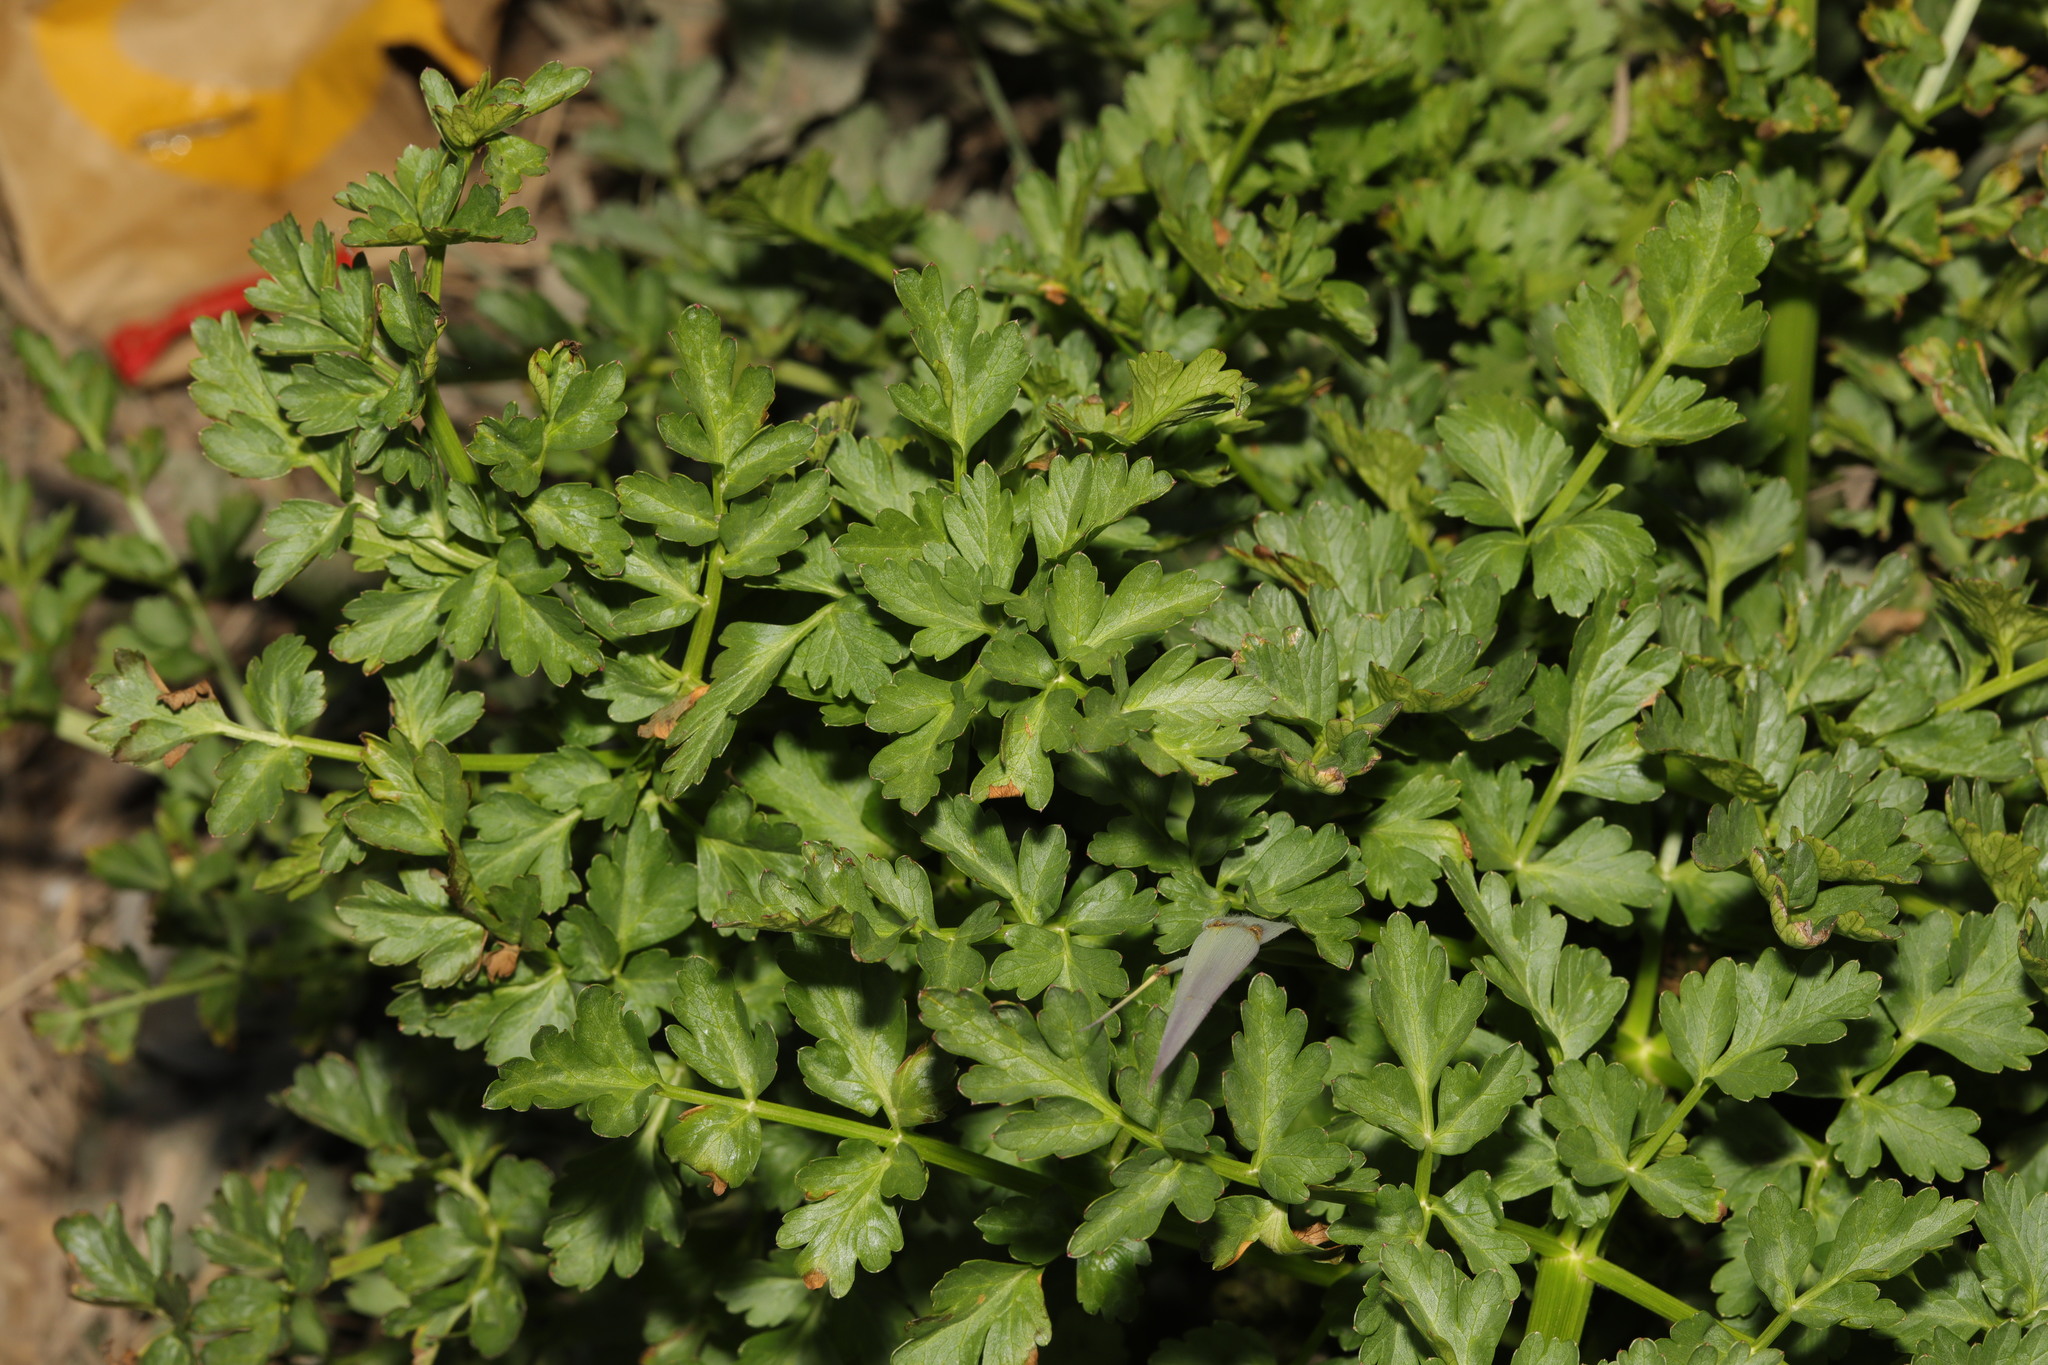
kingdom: Plantae
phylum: Tracheophyta
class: Magnoliopsida
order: Apiales
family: Apiaceae
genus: Oenanthe
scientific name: Oenanthe crocata
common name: Hemlock water-dropwort
